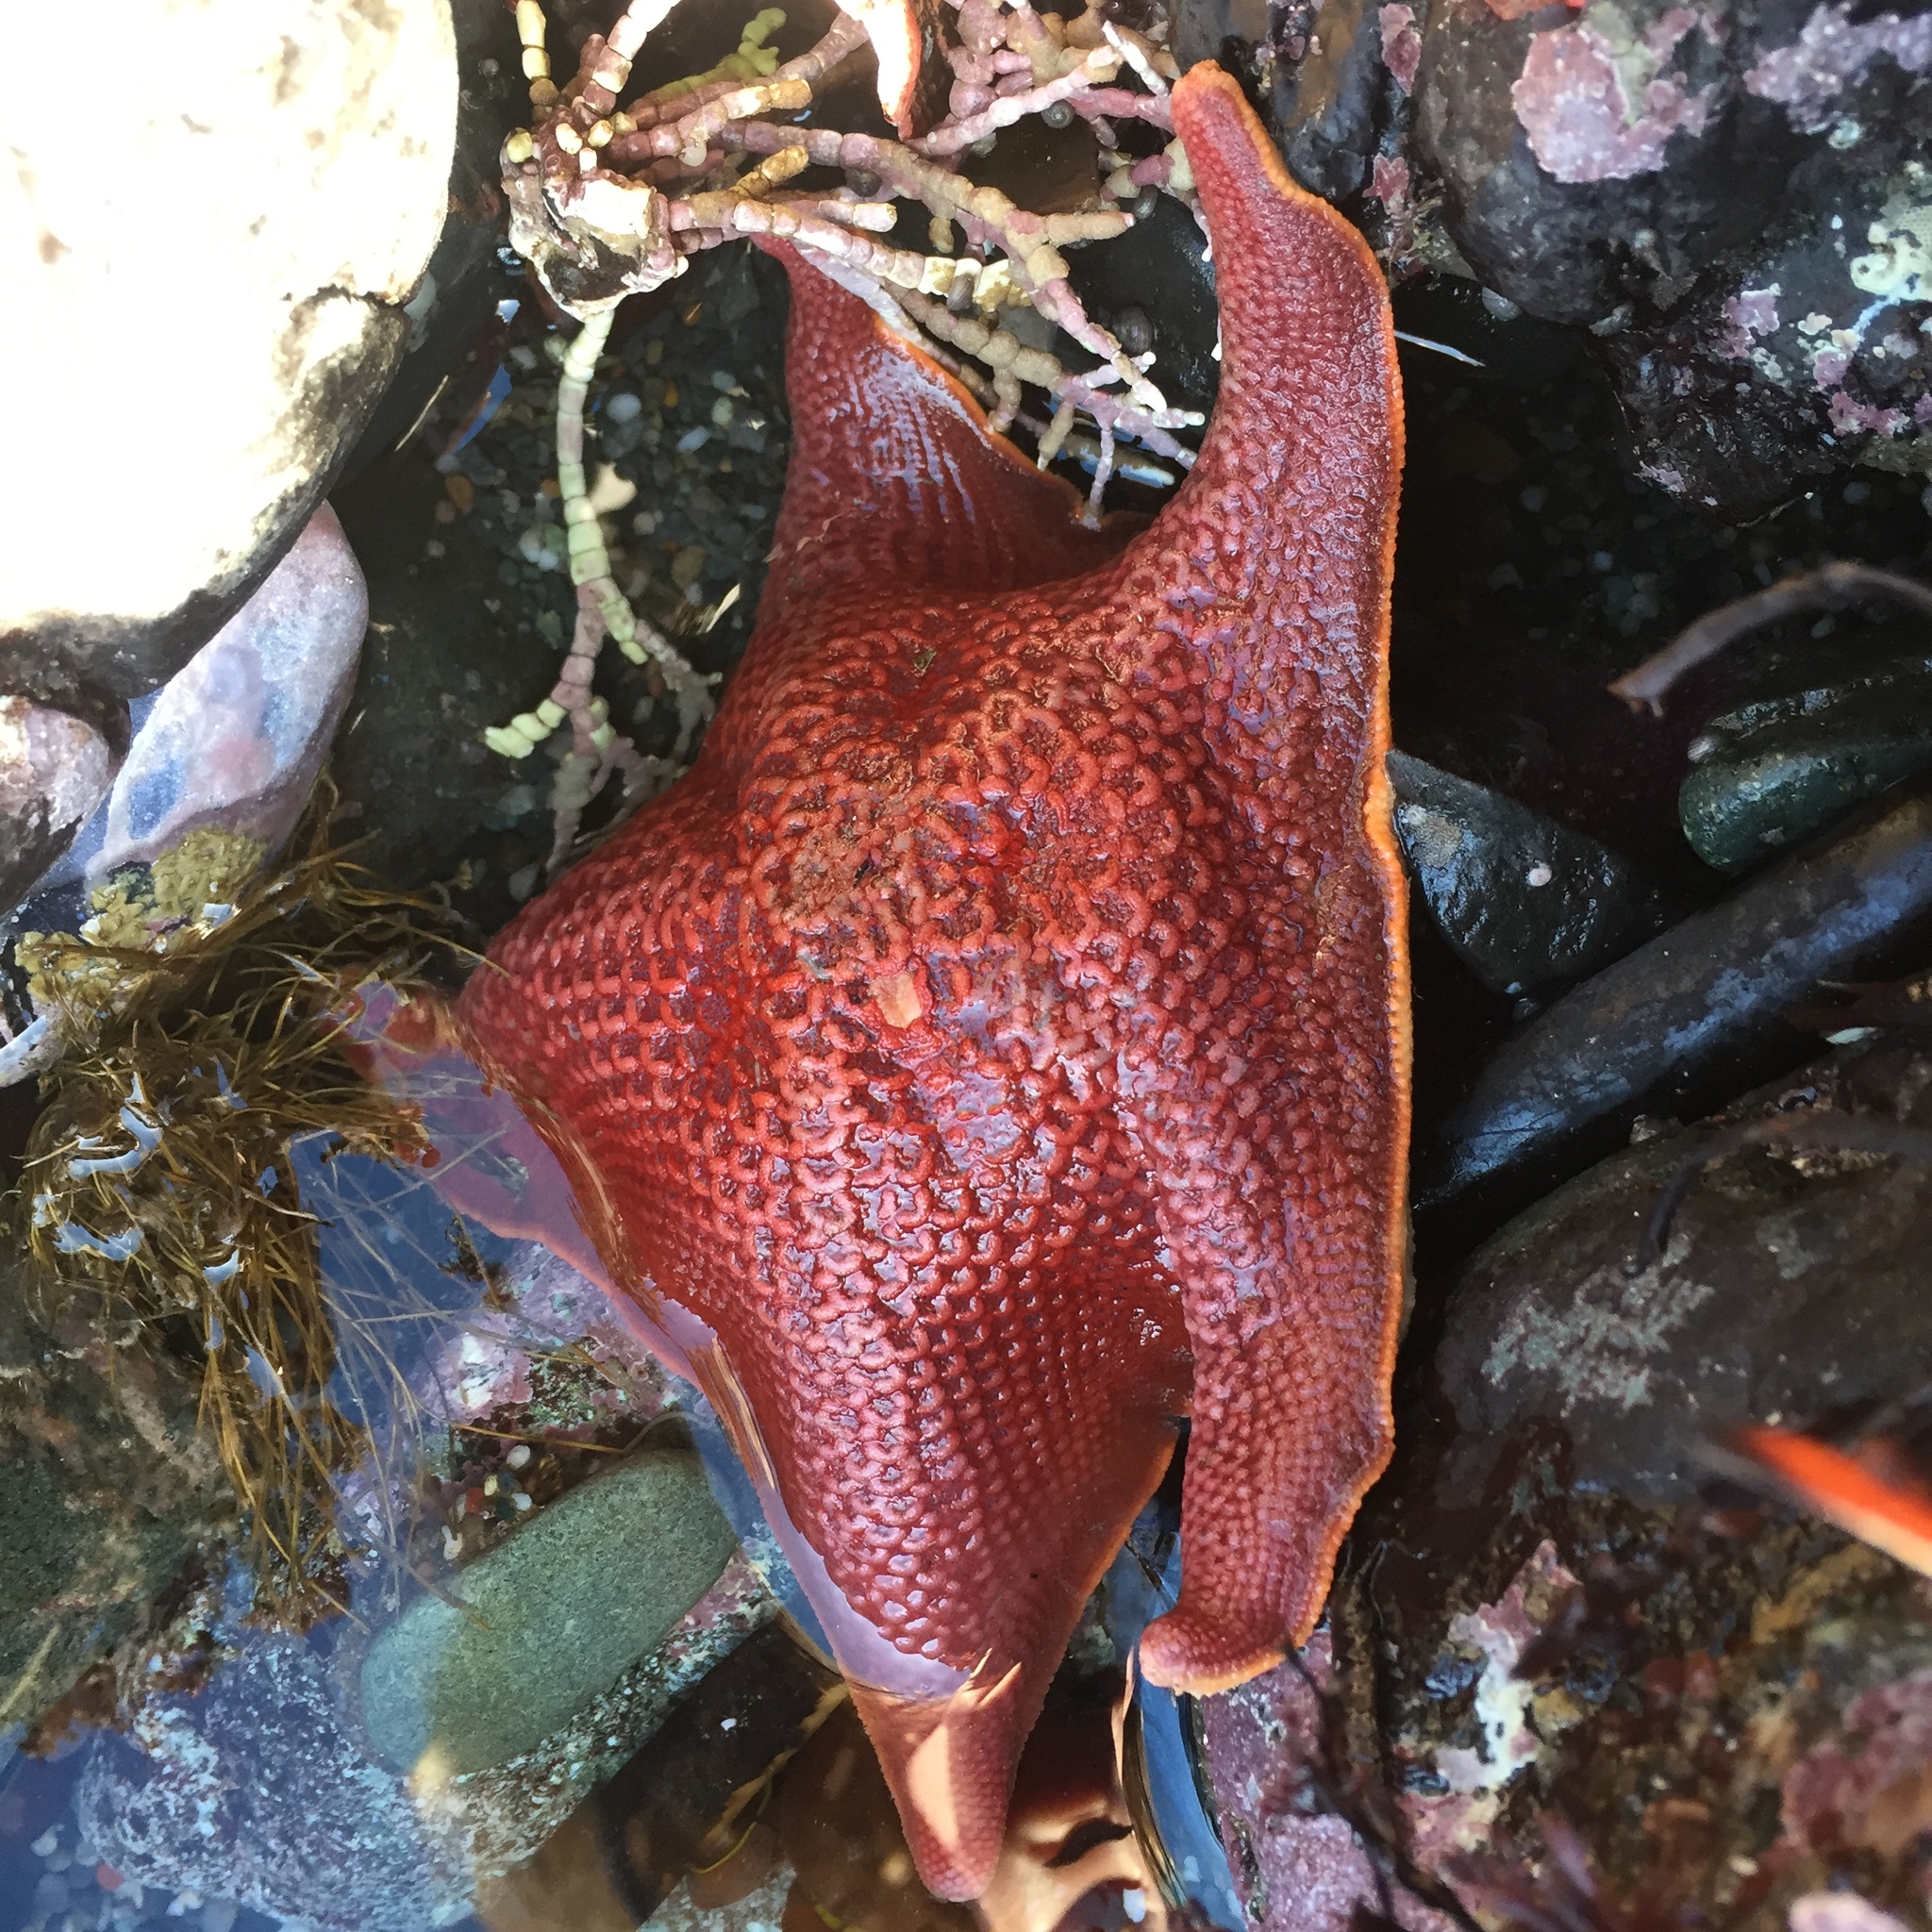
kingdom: Animalia
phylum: Echinodermata
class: Asteroidea
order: Valvatida
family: Asterinidae
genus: Patiria
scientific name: Patiria miniata
